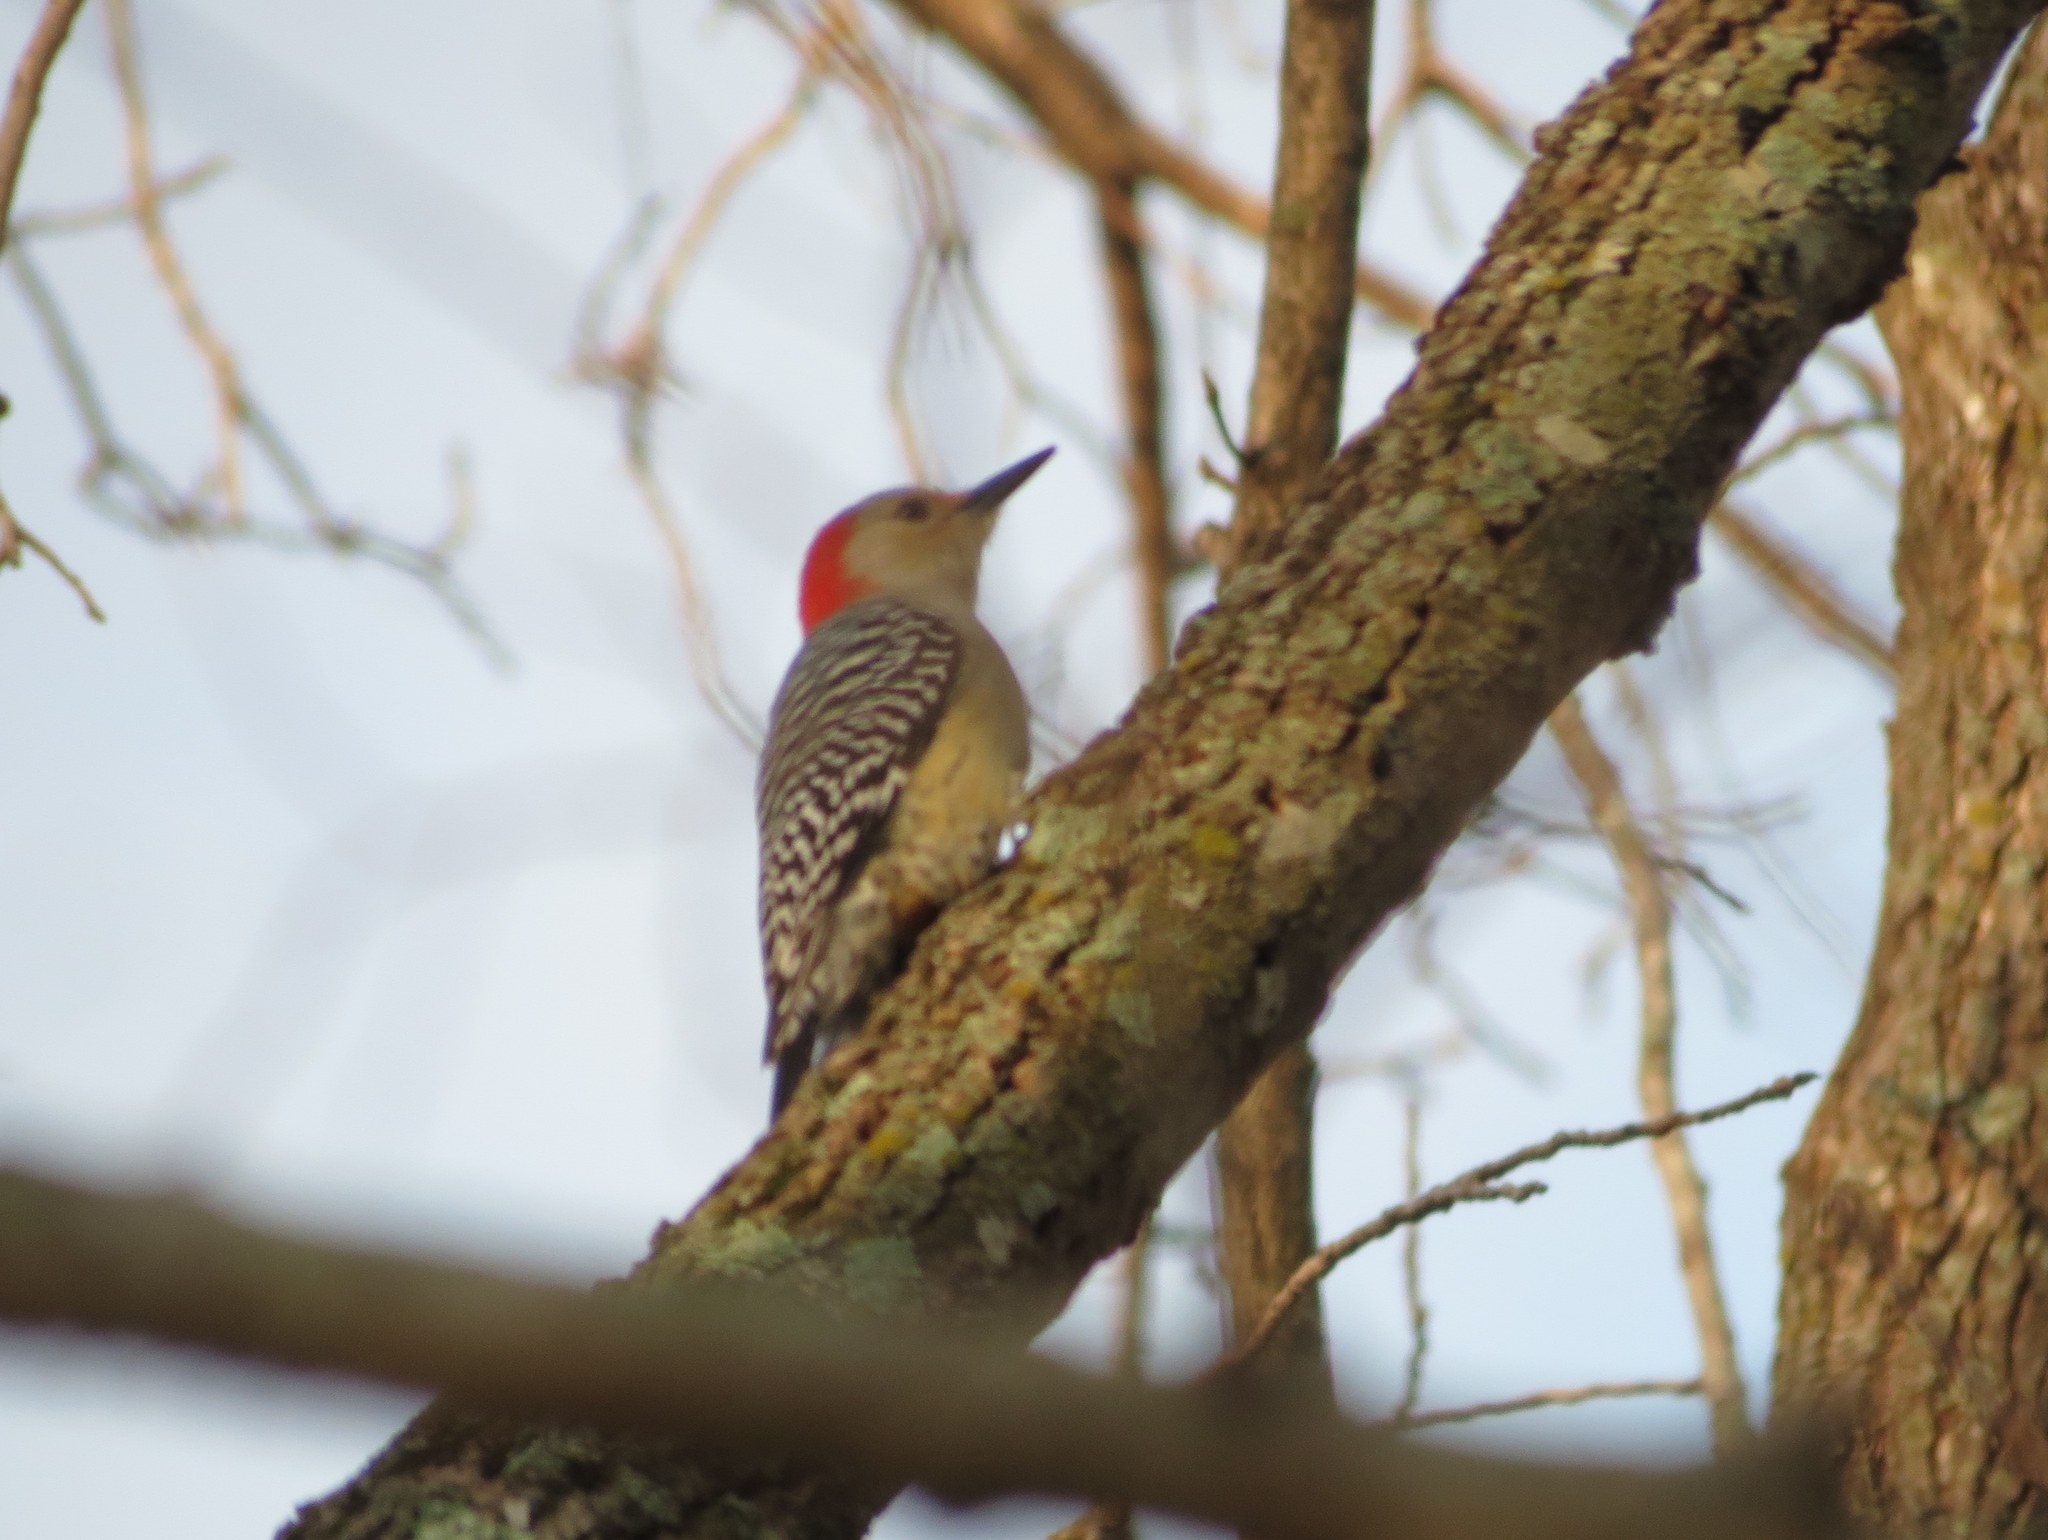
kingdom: Animalia
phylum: Chordata
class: Aves
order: Piciformes
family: Picidae
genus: Melanerpes
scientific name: Melanerpes carolinus
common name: Red-bellied woodpecker
